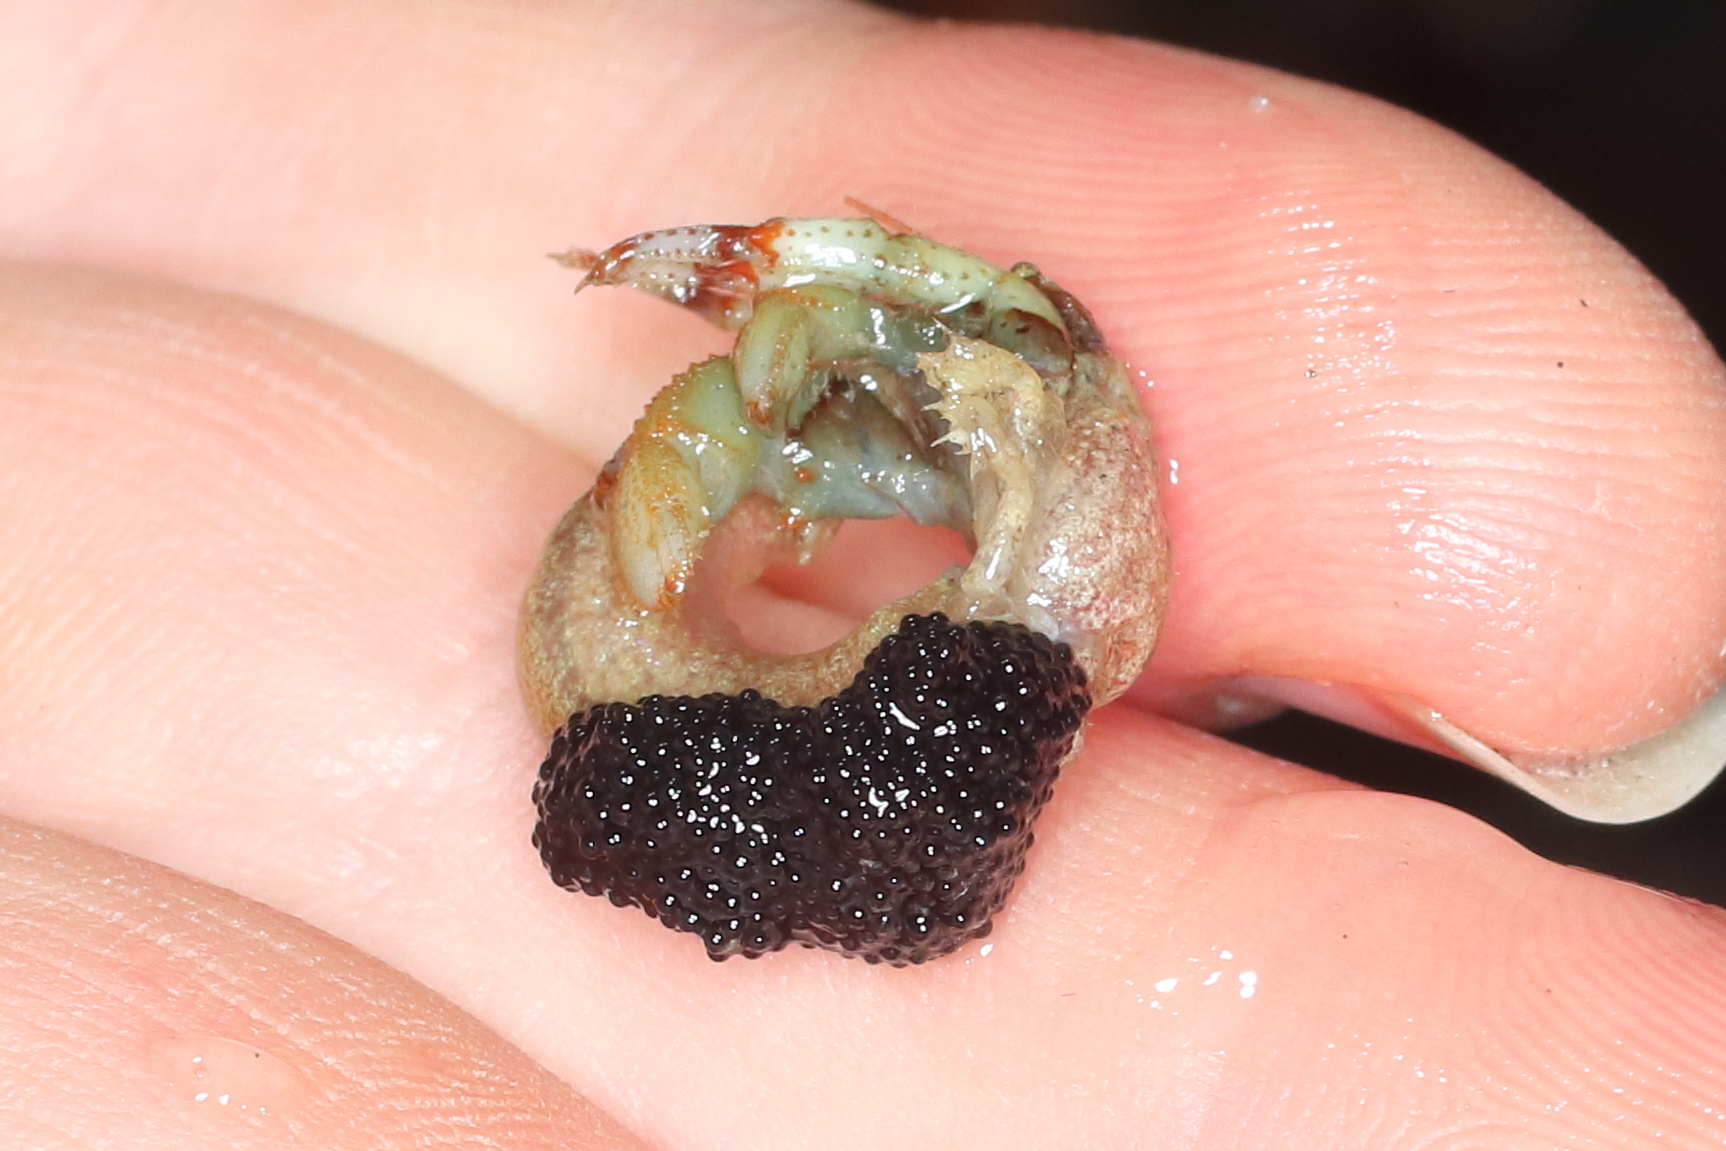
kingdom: Animalia
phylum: Arthropoda
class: Malacostraca
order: Decapoda
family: Paguridae
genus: Pagurus
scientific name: Pagurus beringanus
